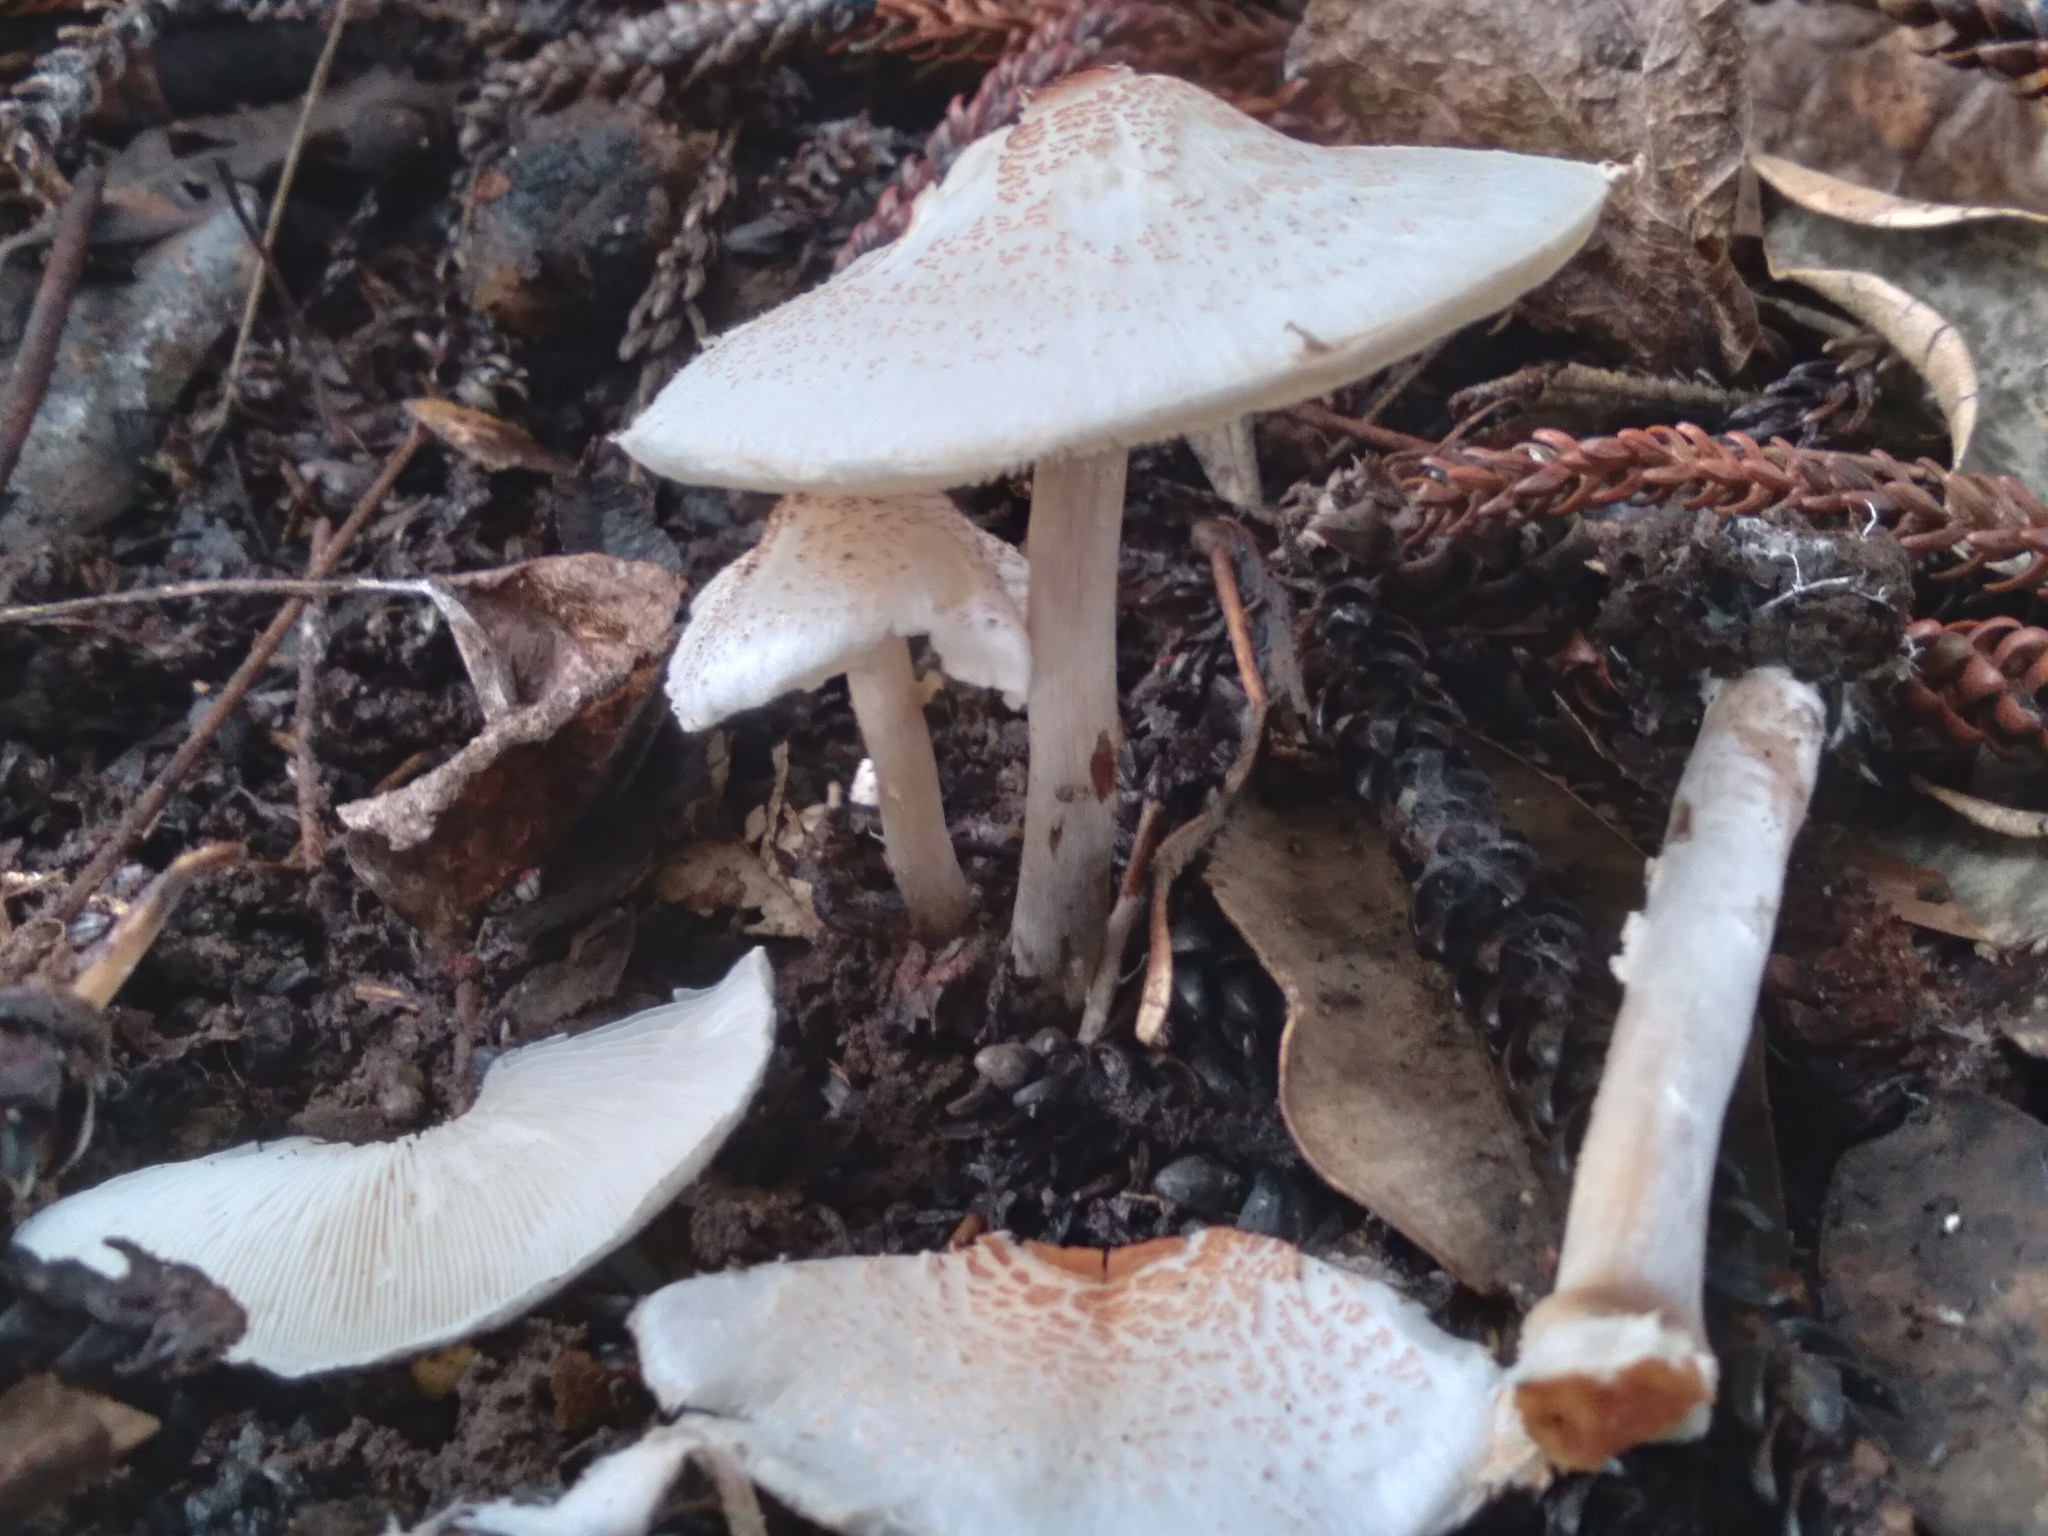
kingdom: Fungi
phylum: Basidiomycota
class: Agaricomycetes
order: Agaricales
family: Agaricaceae
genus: Lepiota
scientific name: Lepiota cristata
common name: Stinking dapperling
